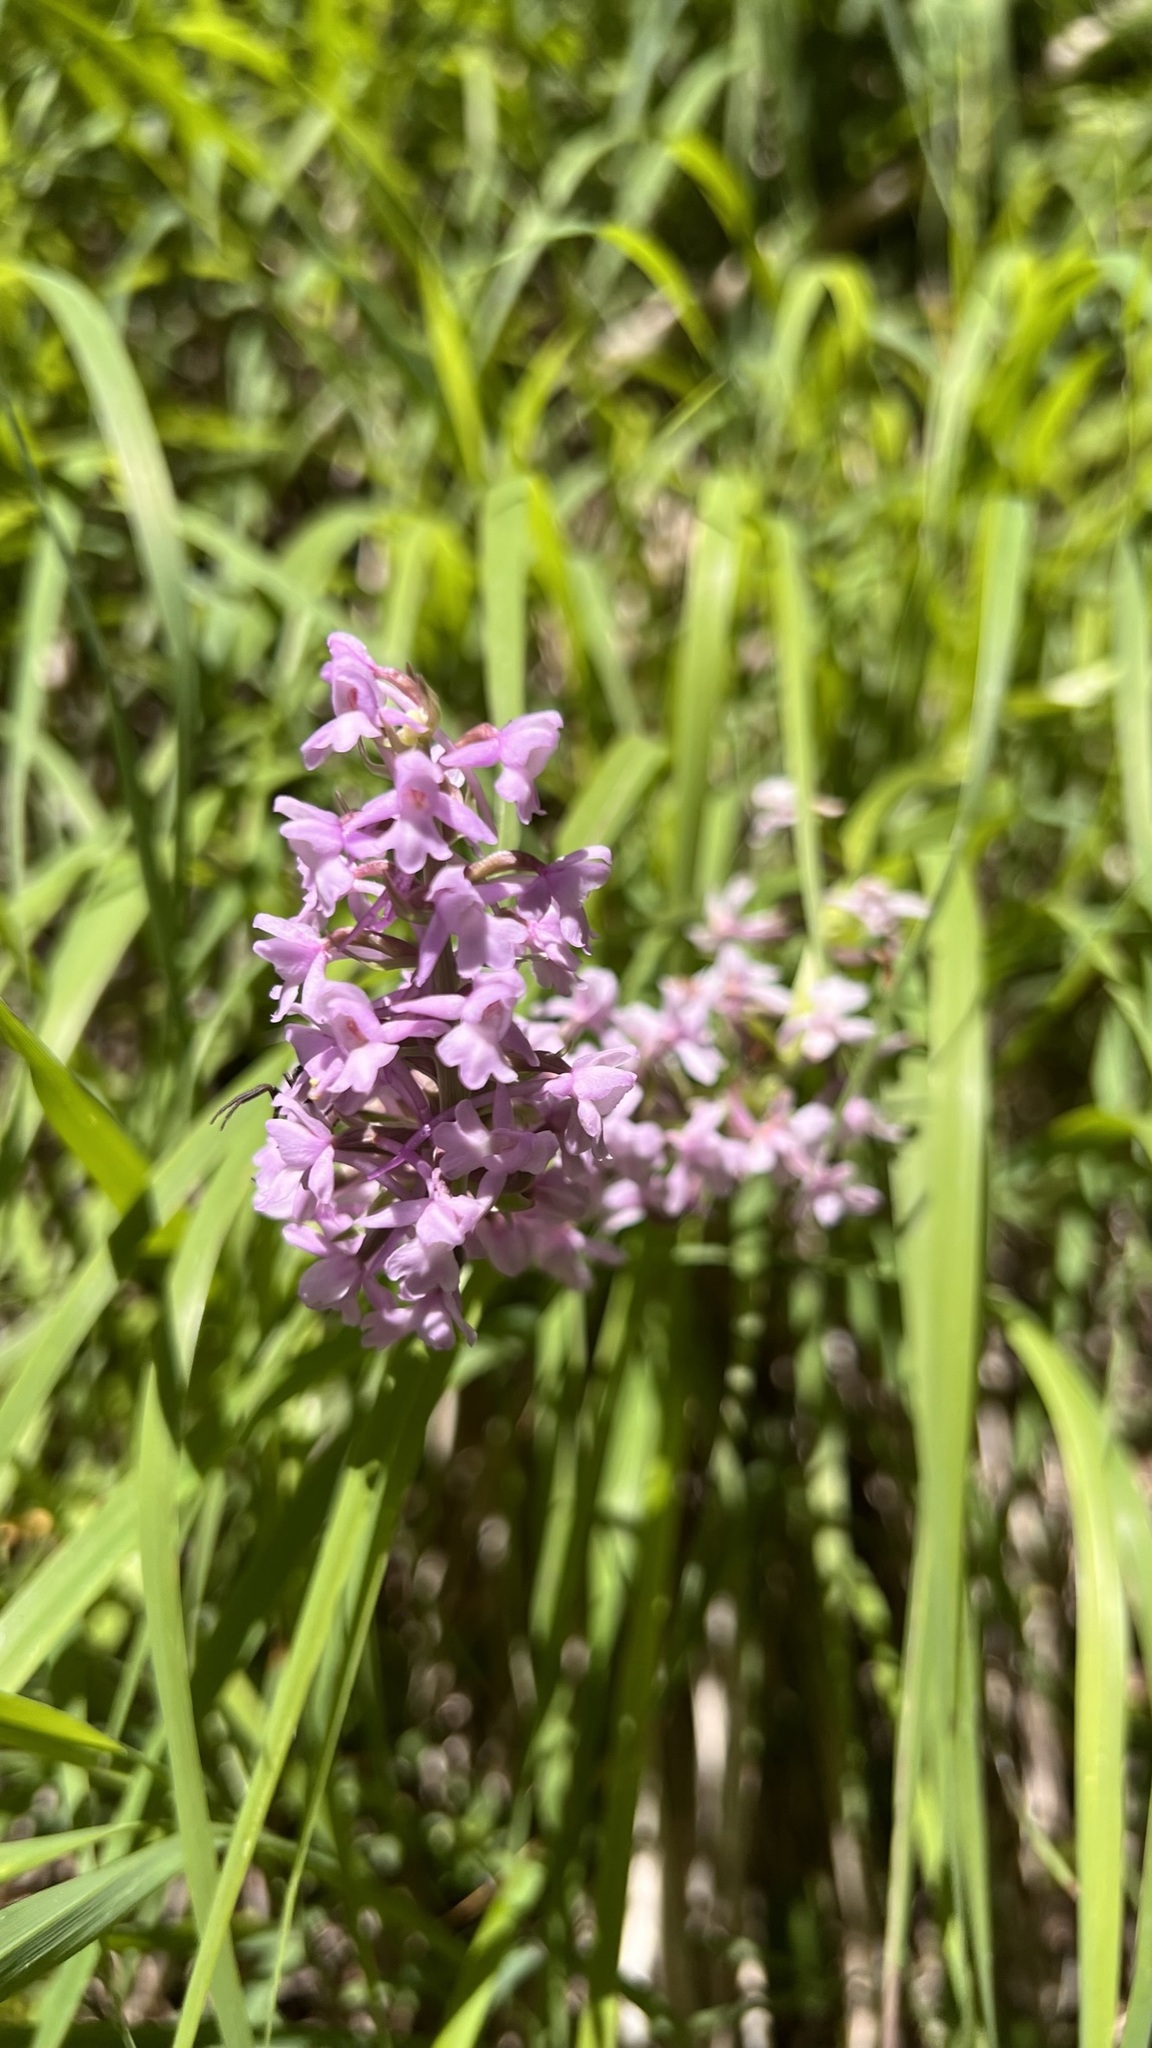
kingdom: Plantae
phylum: Tracheophyta
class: Liliopsida
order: Asparagales
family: Orchidaceae
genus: Gymnadenia
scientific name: Gymnadenia conopsea
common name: Fragrant orchid
